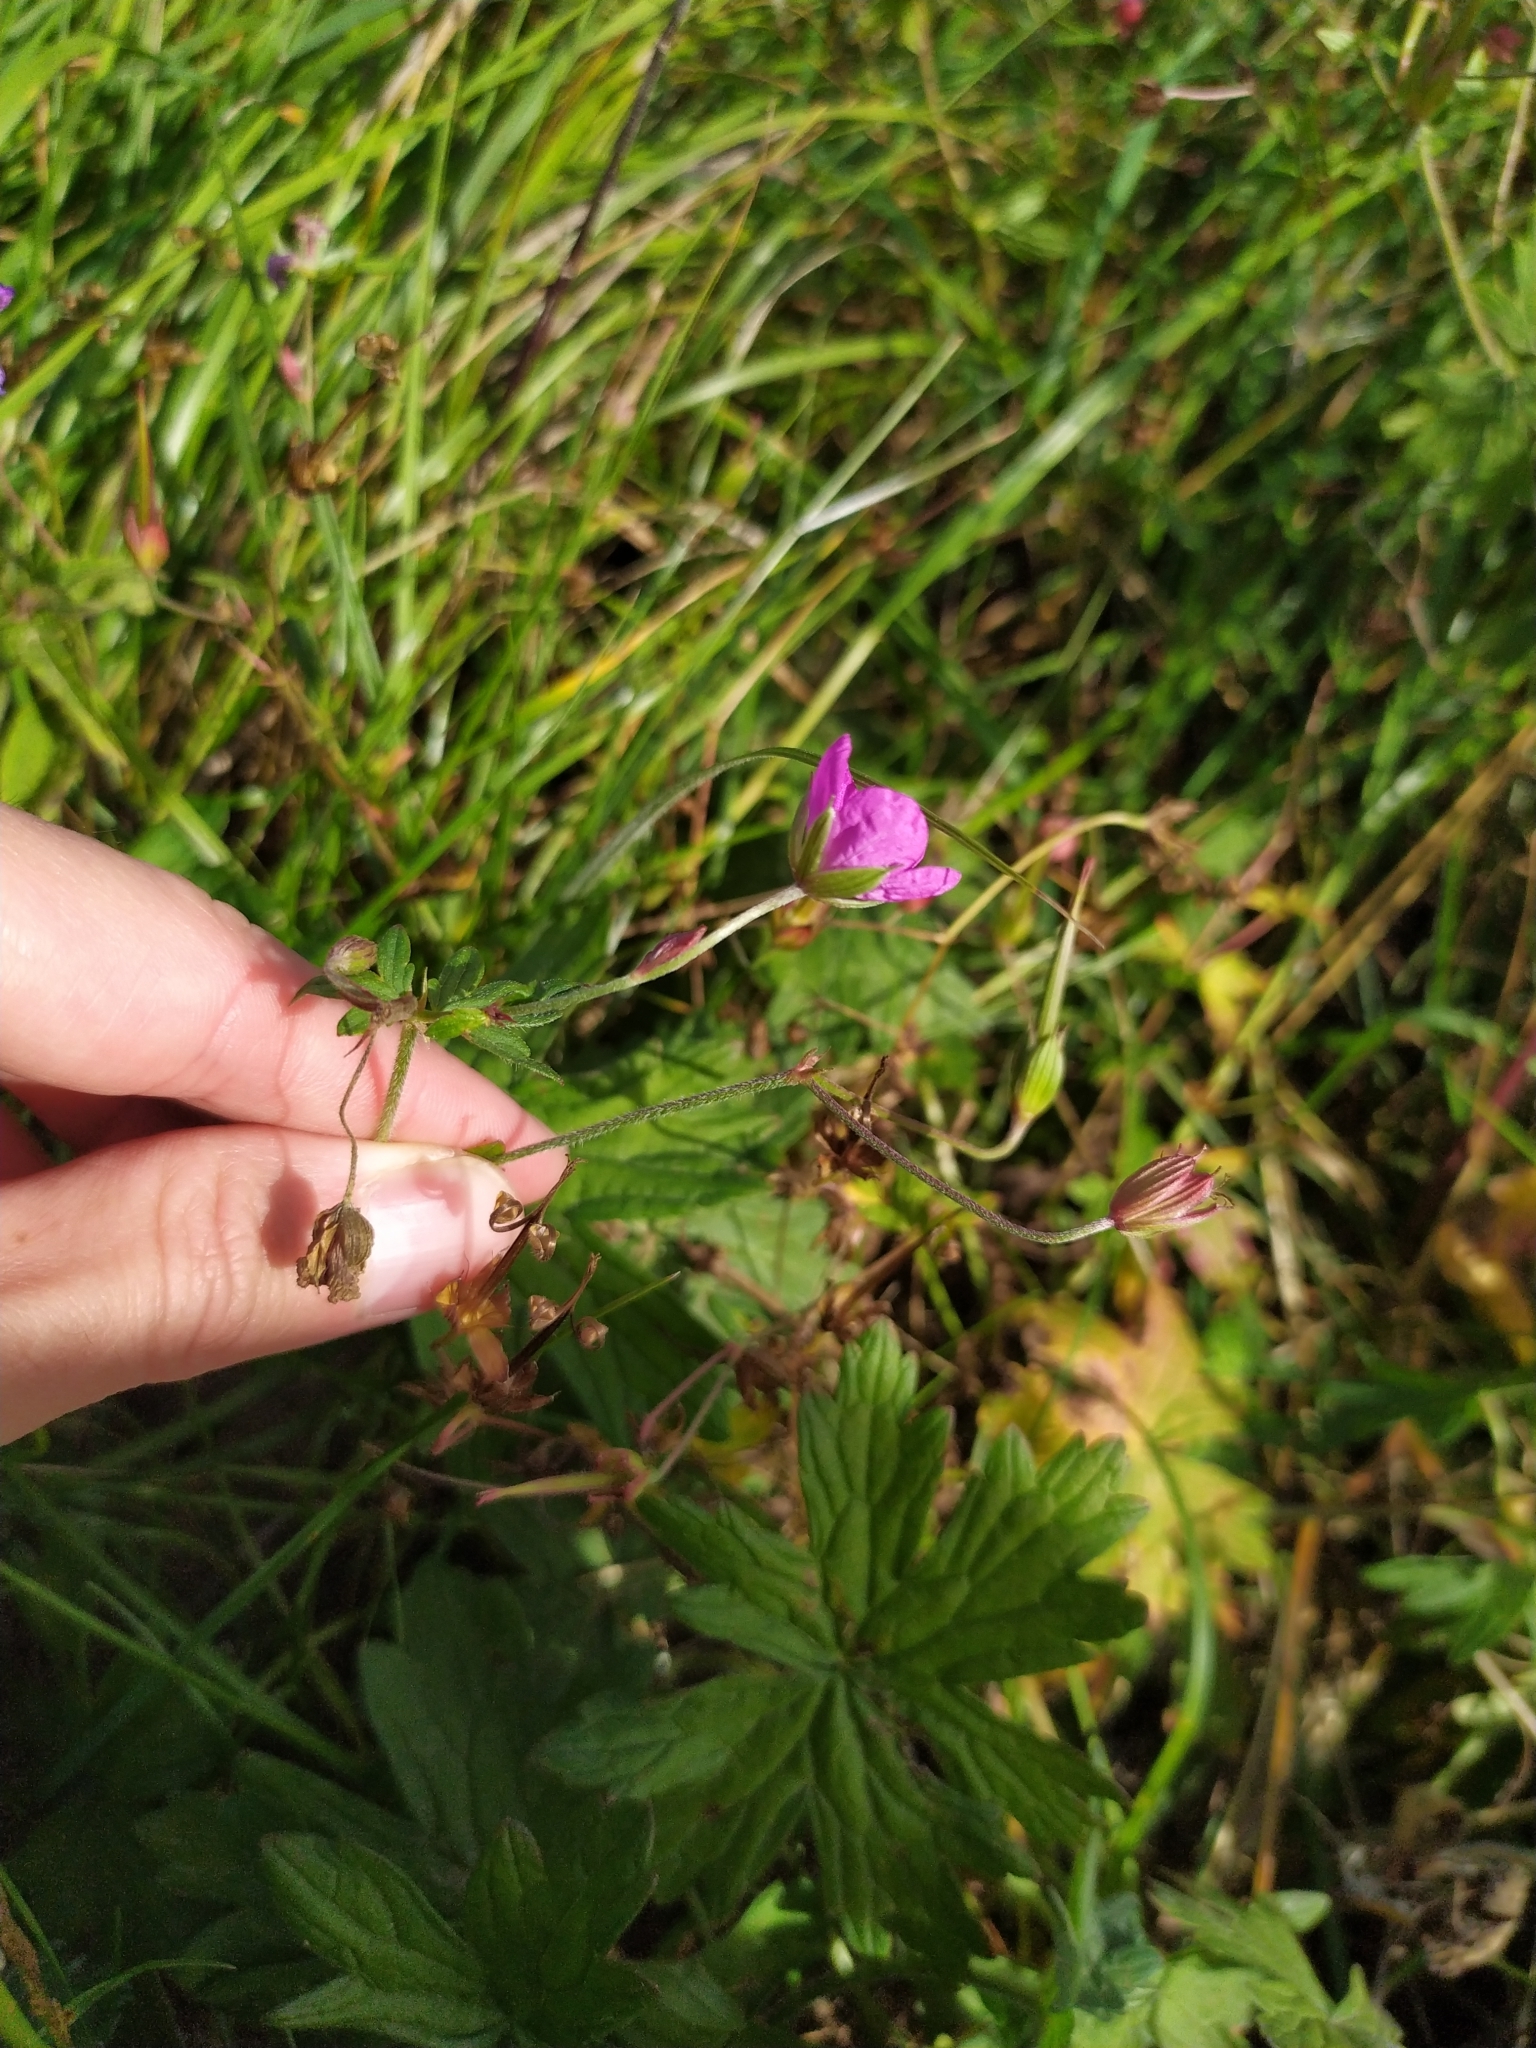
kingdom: Plantae
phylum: Tracheophyta
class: Magnoliopsida
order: Geraniales
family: Geraniaceae
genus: Geranium
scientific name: Geranium palustre
